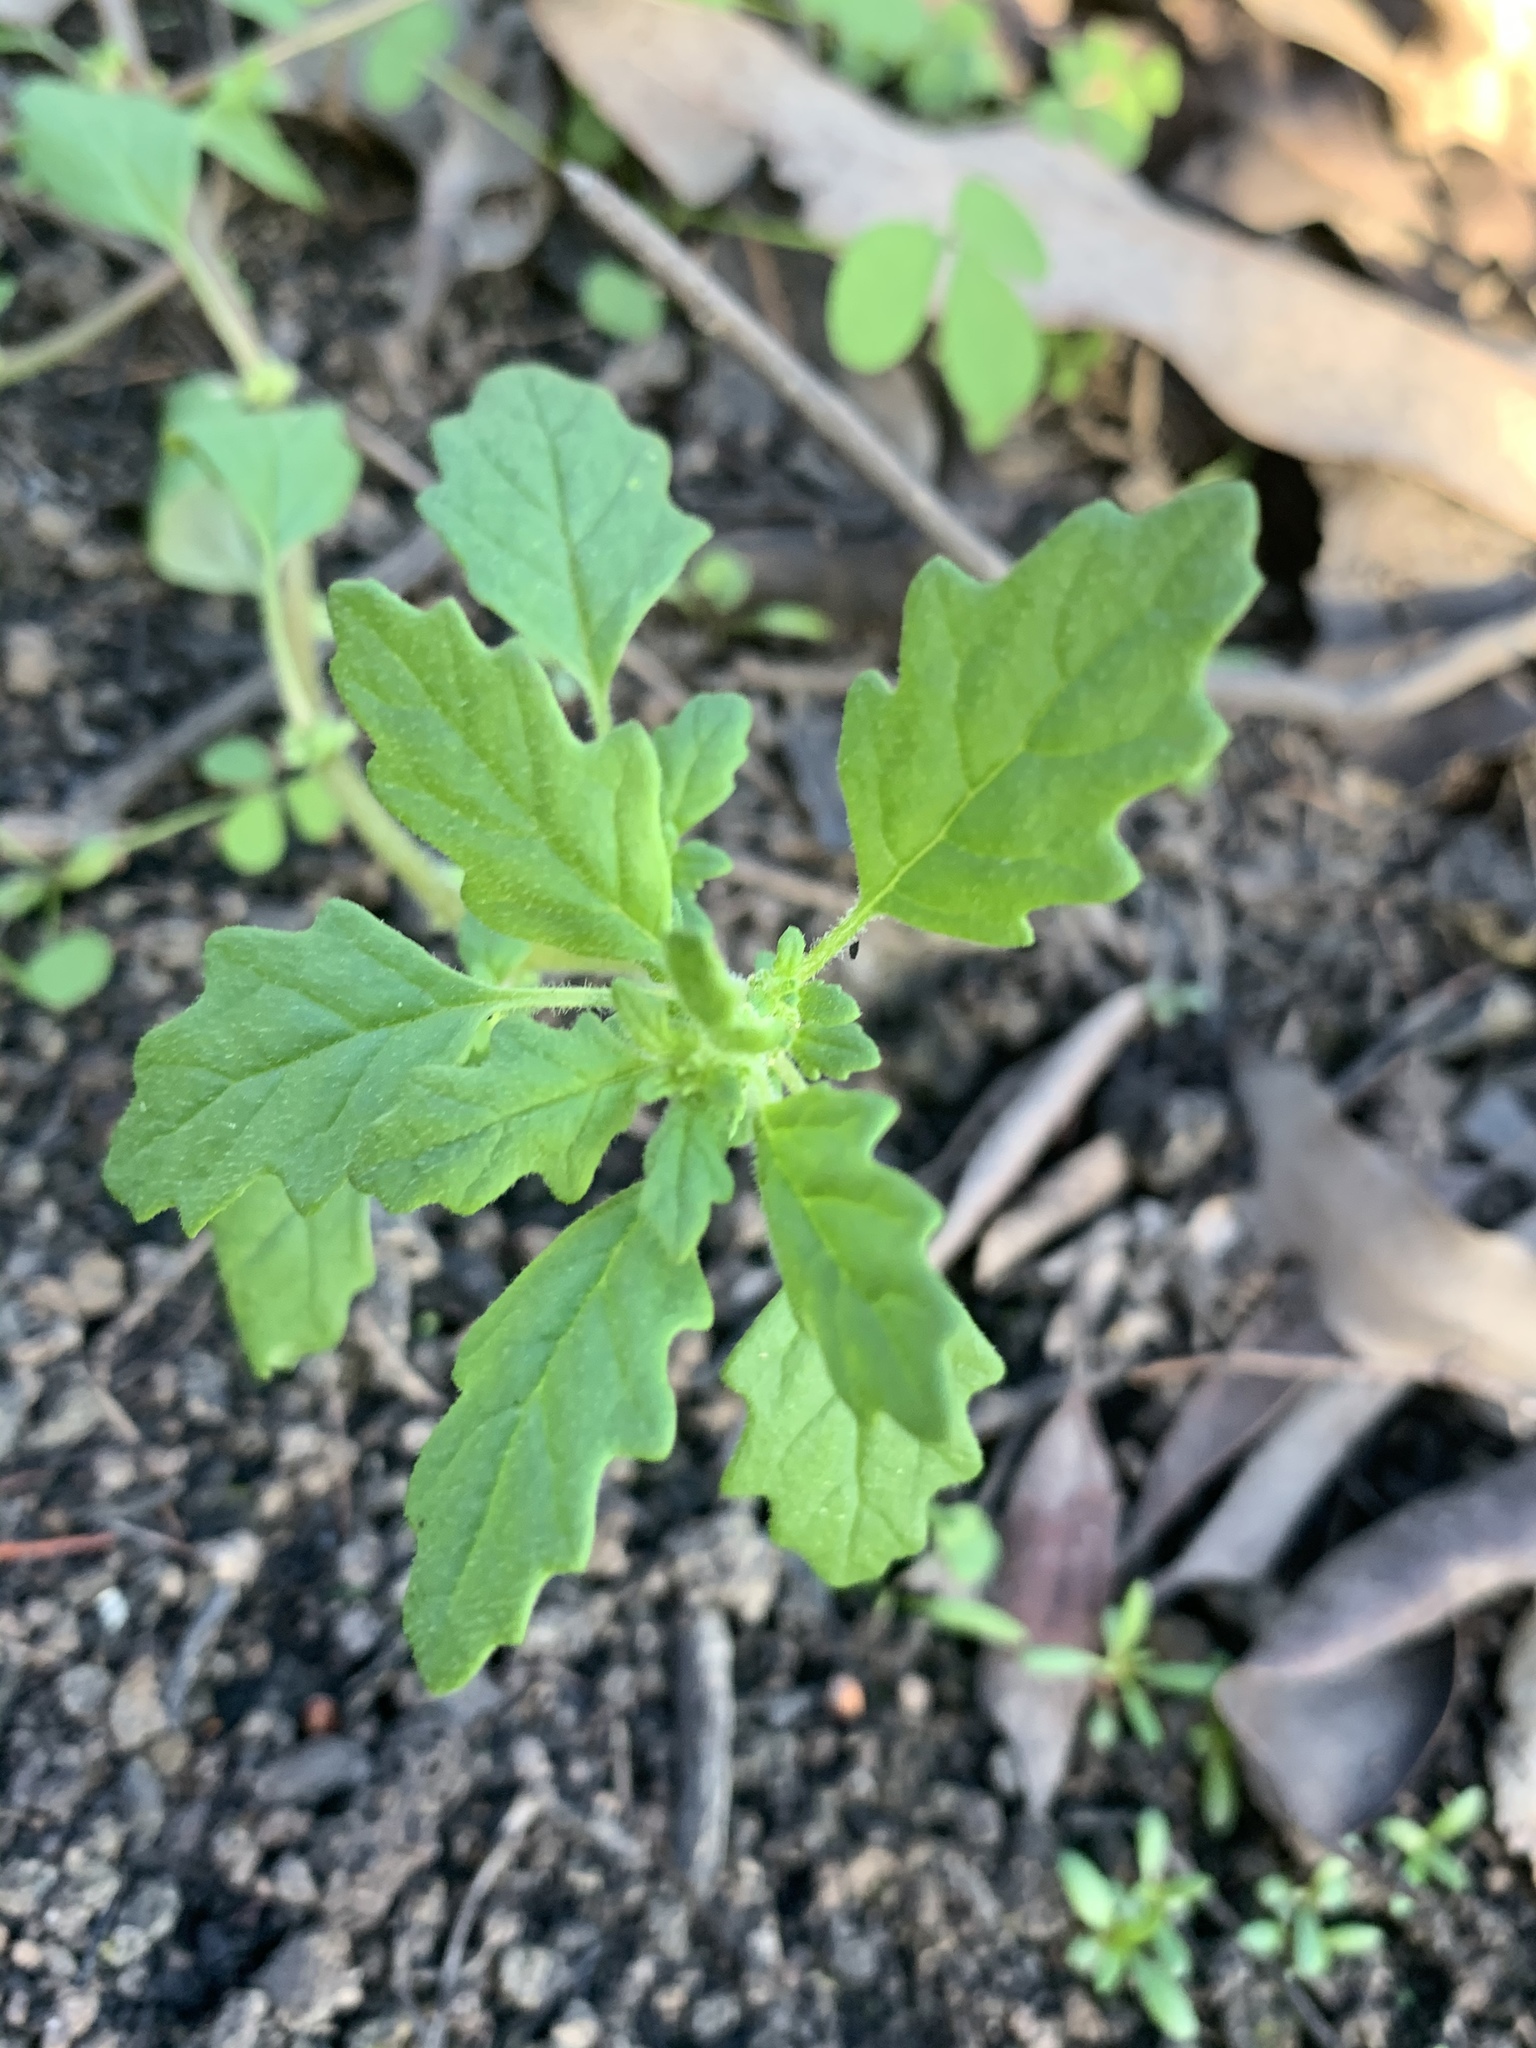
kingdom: Plantae
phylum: Tracheophyta
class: Magnoliopsida
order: Caryophyllales
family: Amaranthaceae
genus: Dysphania
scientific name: Dysphania pumilio
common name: Clammy goosefoot
